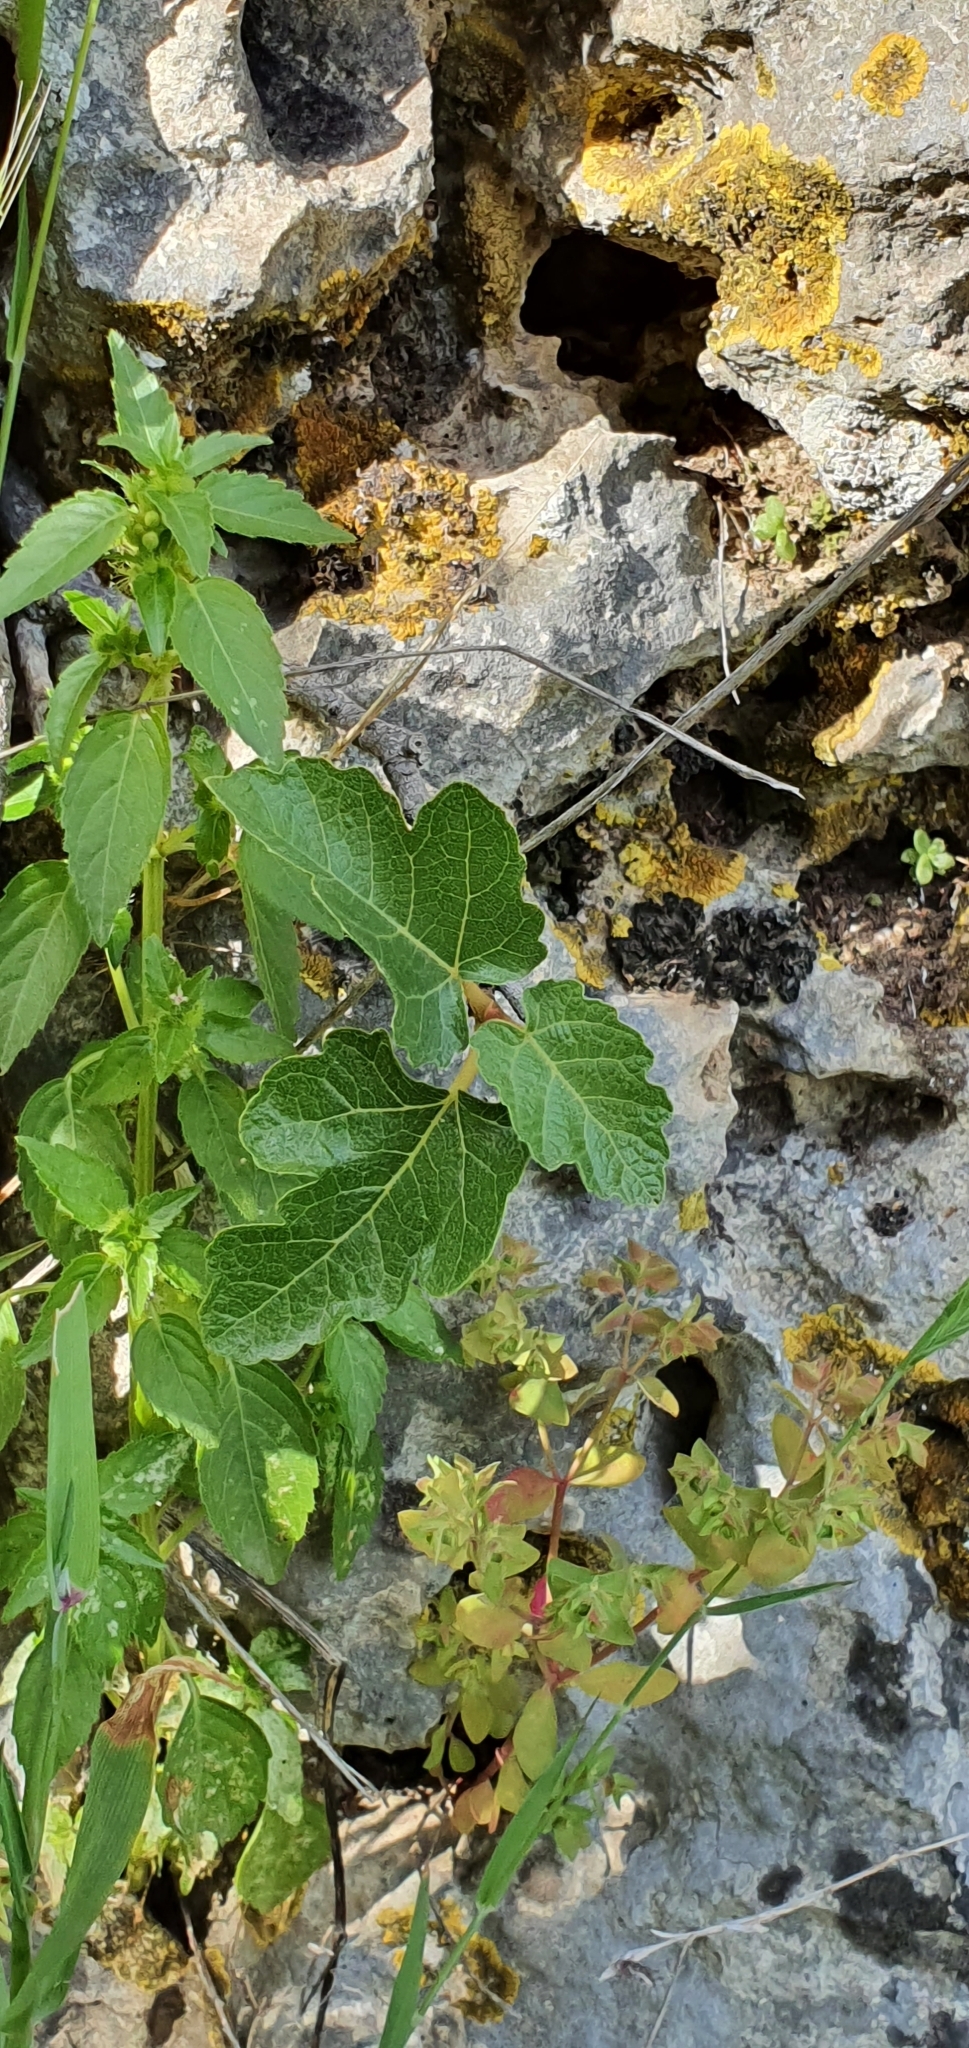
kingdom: Plantae
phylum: Tracheophyta
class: Magnoliopsida
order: Rosales
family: Moraceae
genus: Ficus
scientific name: Ficus carica
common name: Fig
